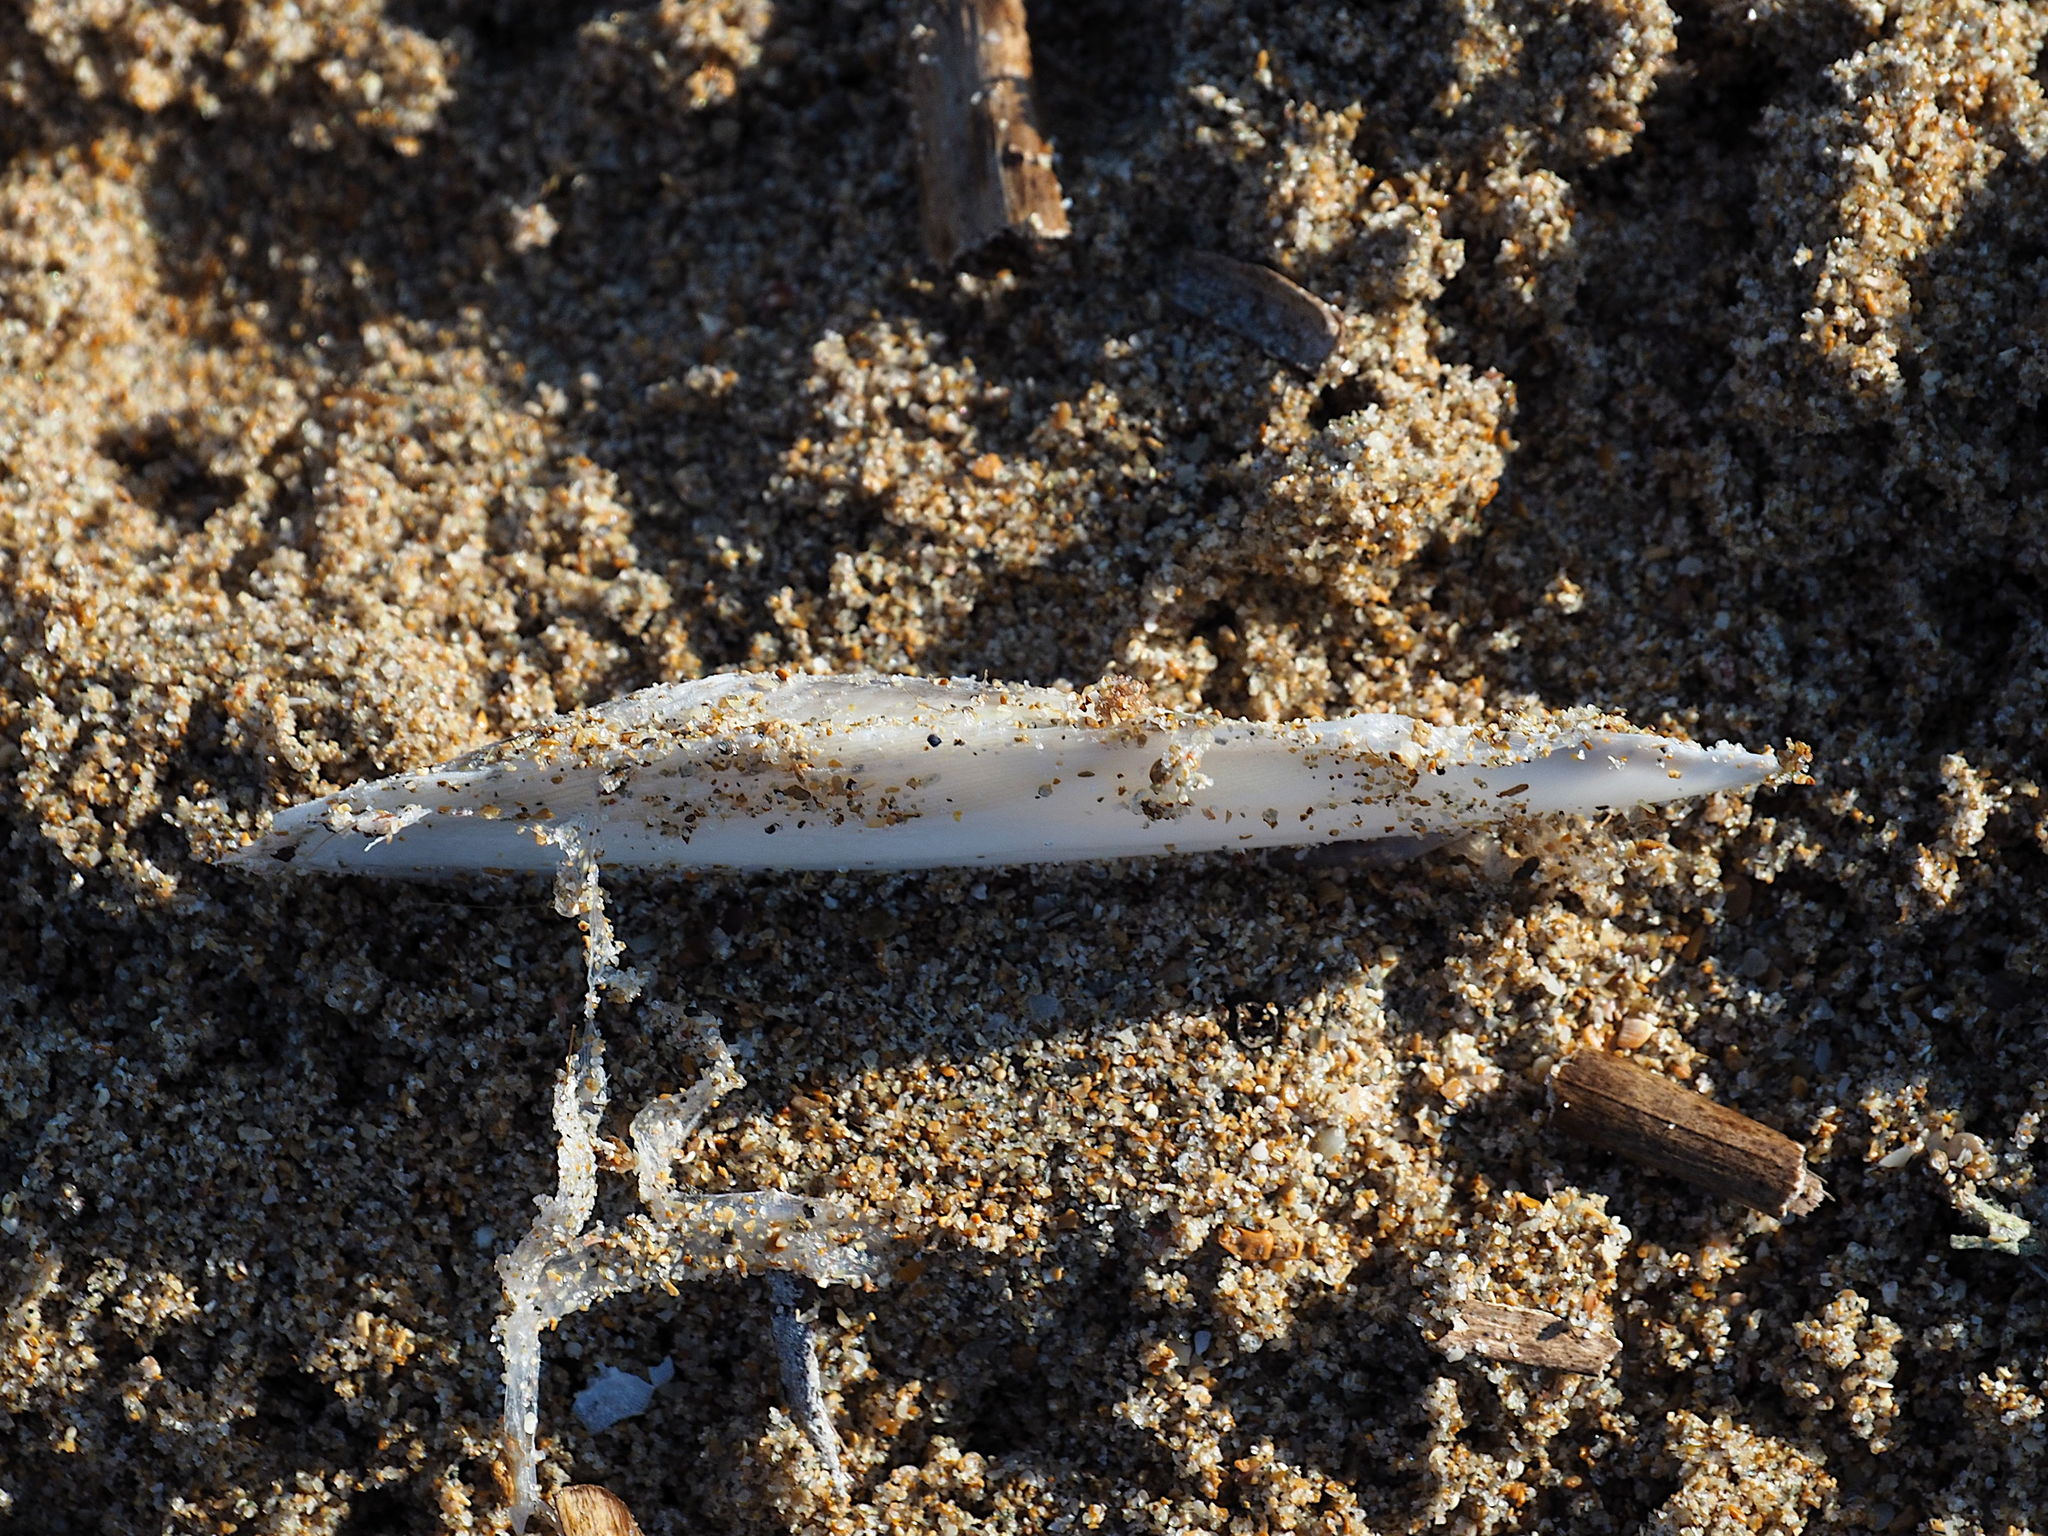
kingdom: Animalia
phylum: Mollusca
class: Cephalopoda
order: Sepiida
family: Sepiidae
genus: Sepia
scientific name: Sepia officinalis
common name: Common cuttlefish
